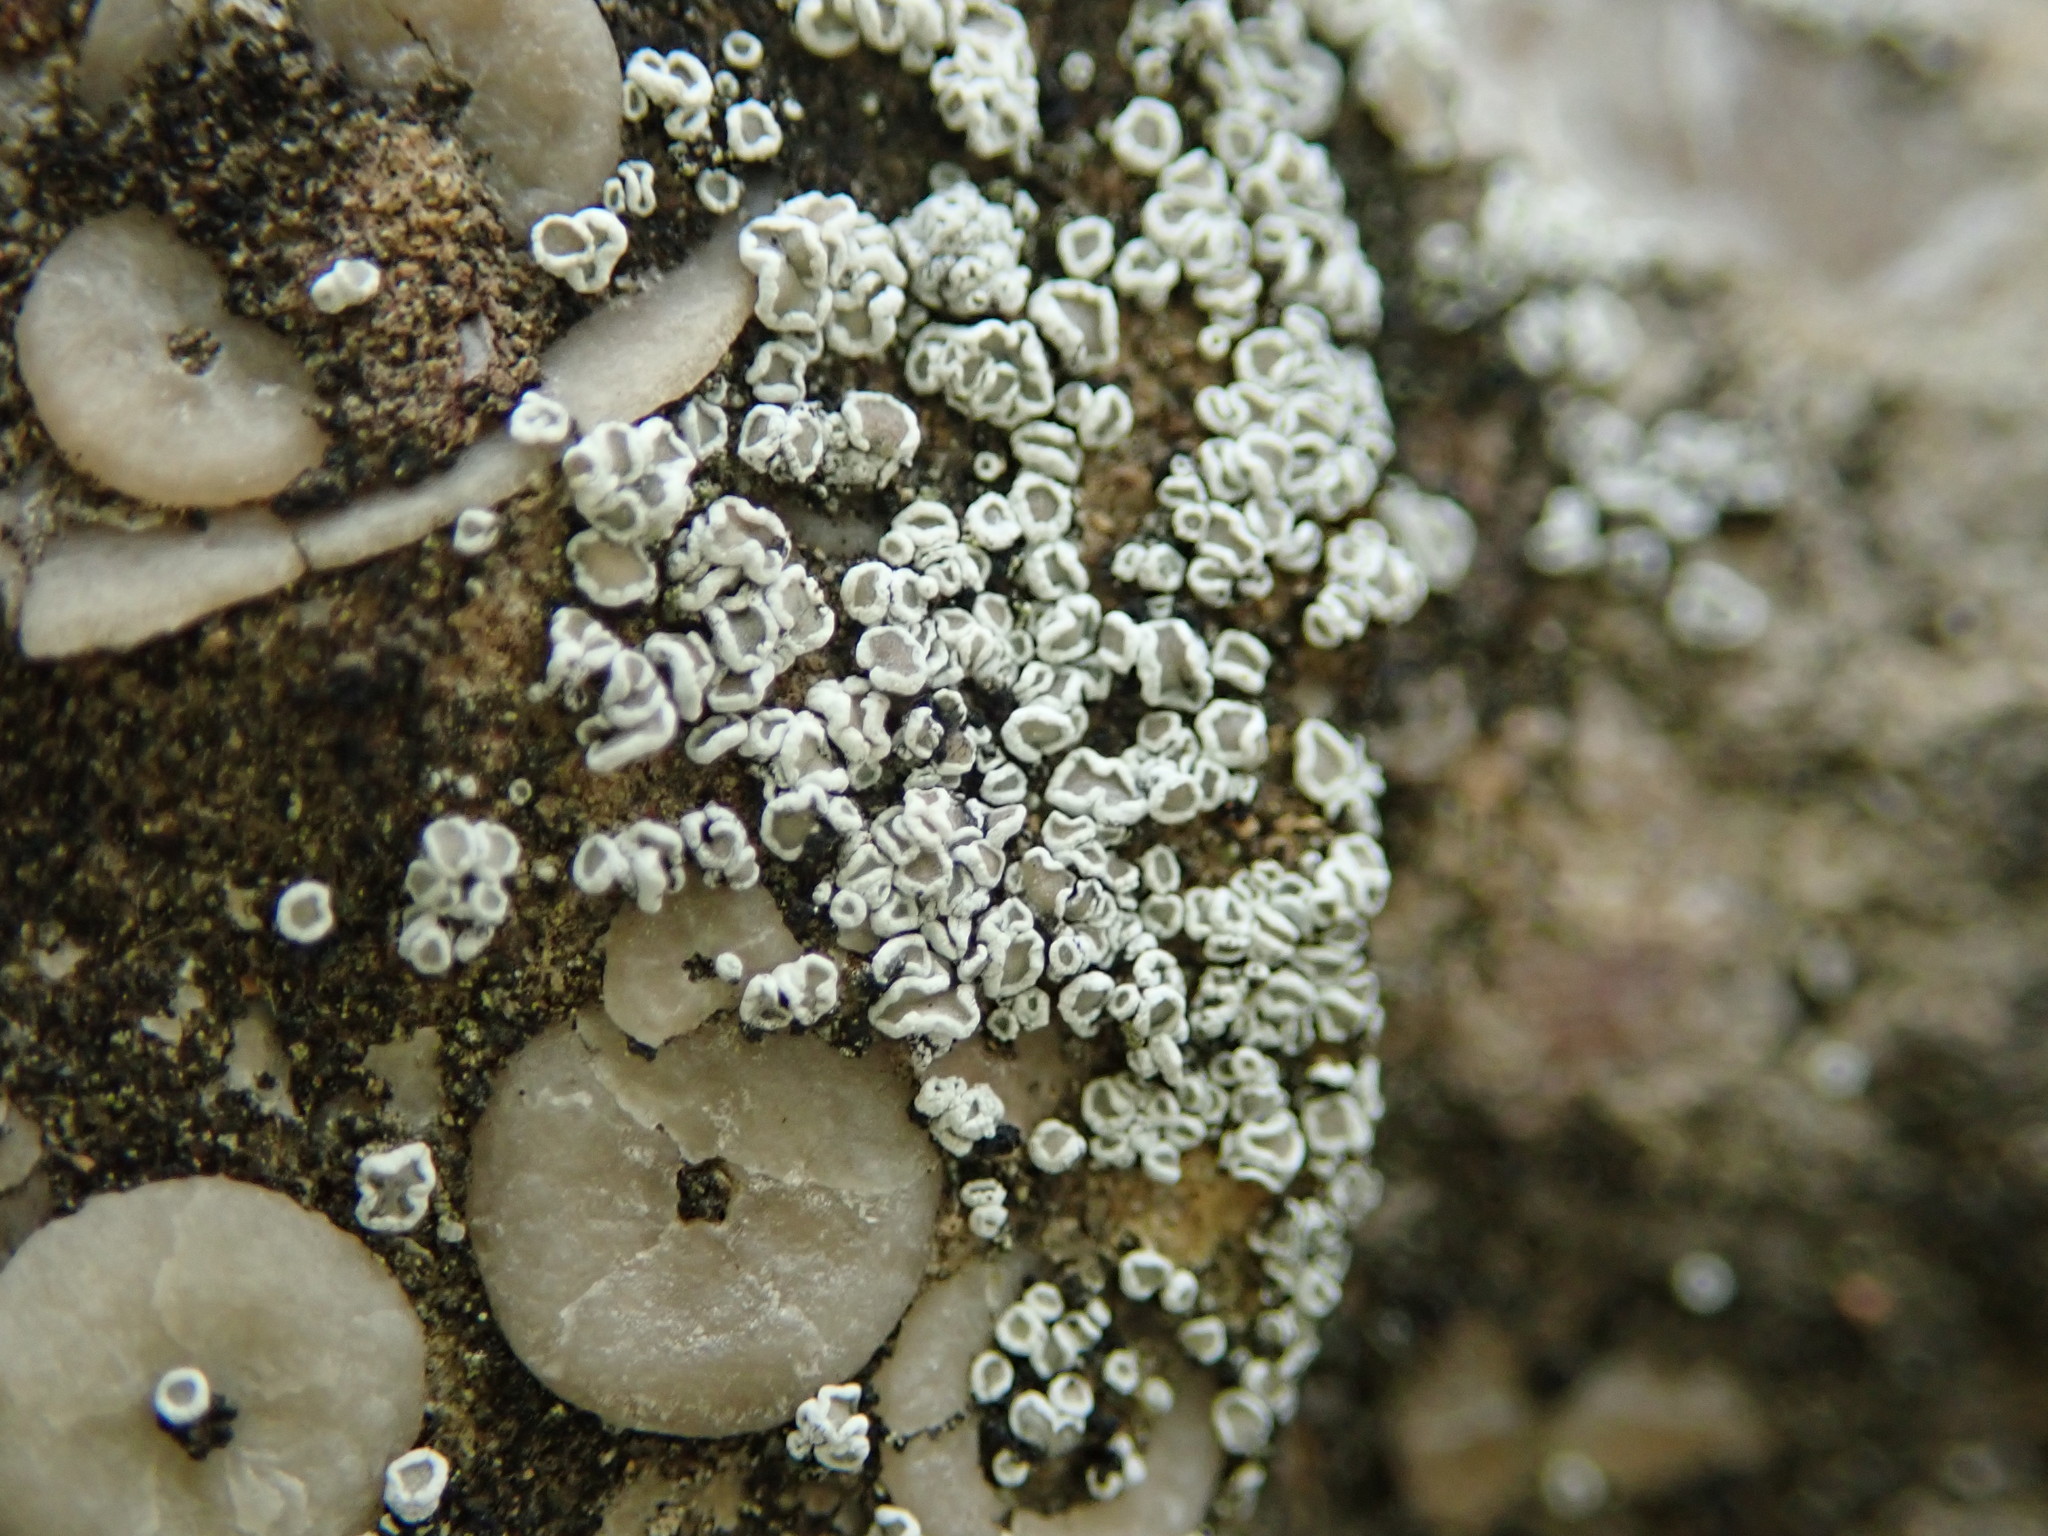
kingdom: Fungi
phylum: Ascomycota
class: Lecanoromycetes
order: Lecanorales
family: Lecanoraceae
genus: Polyozosia
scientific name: Polyozosia dispersa
